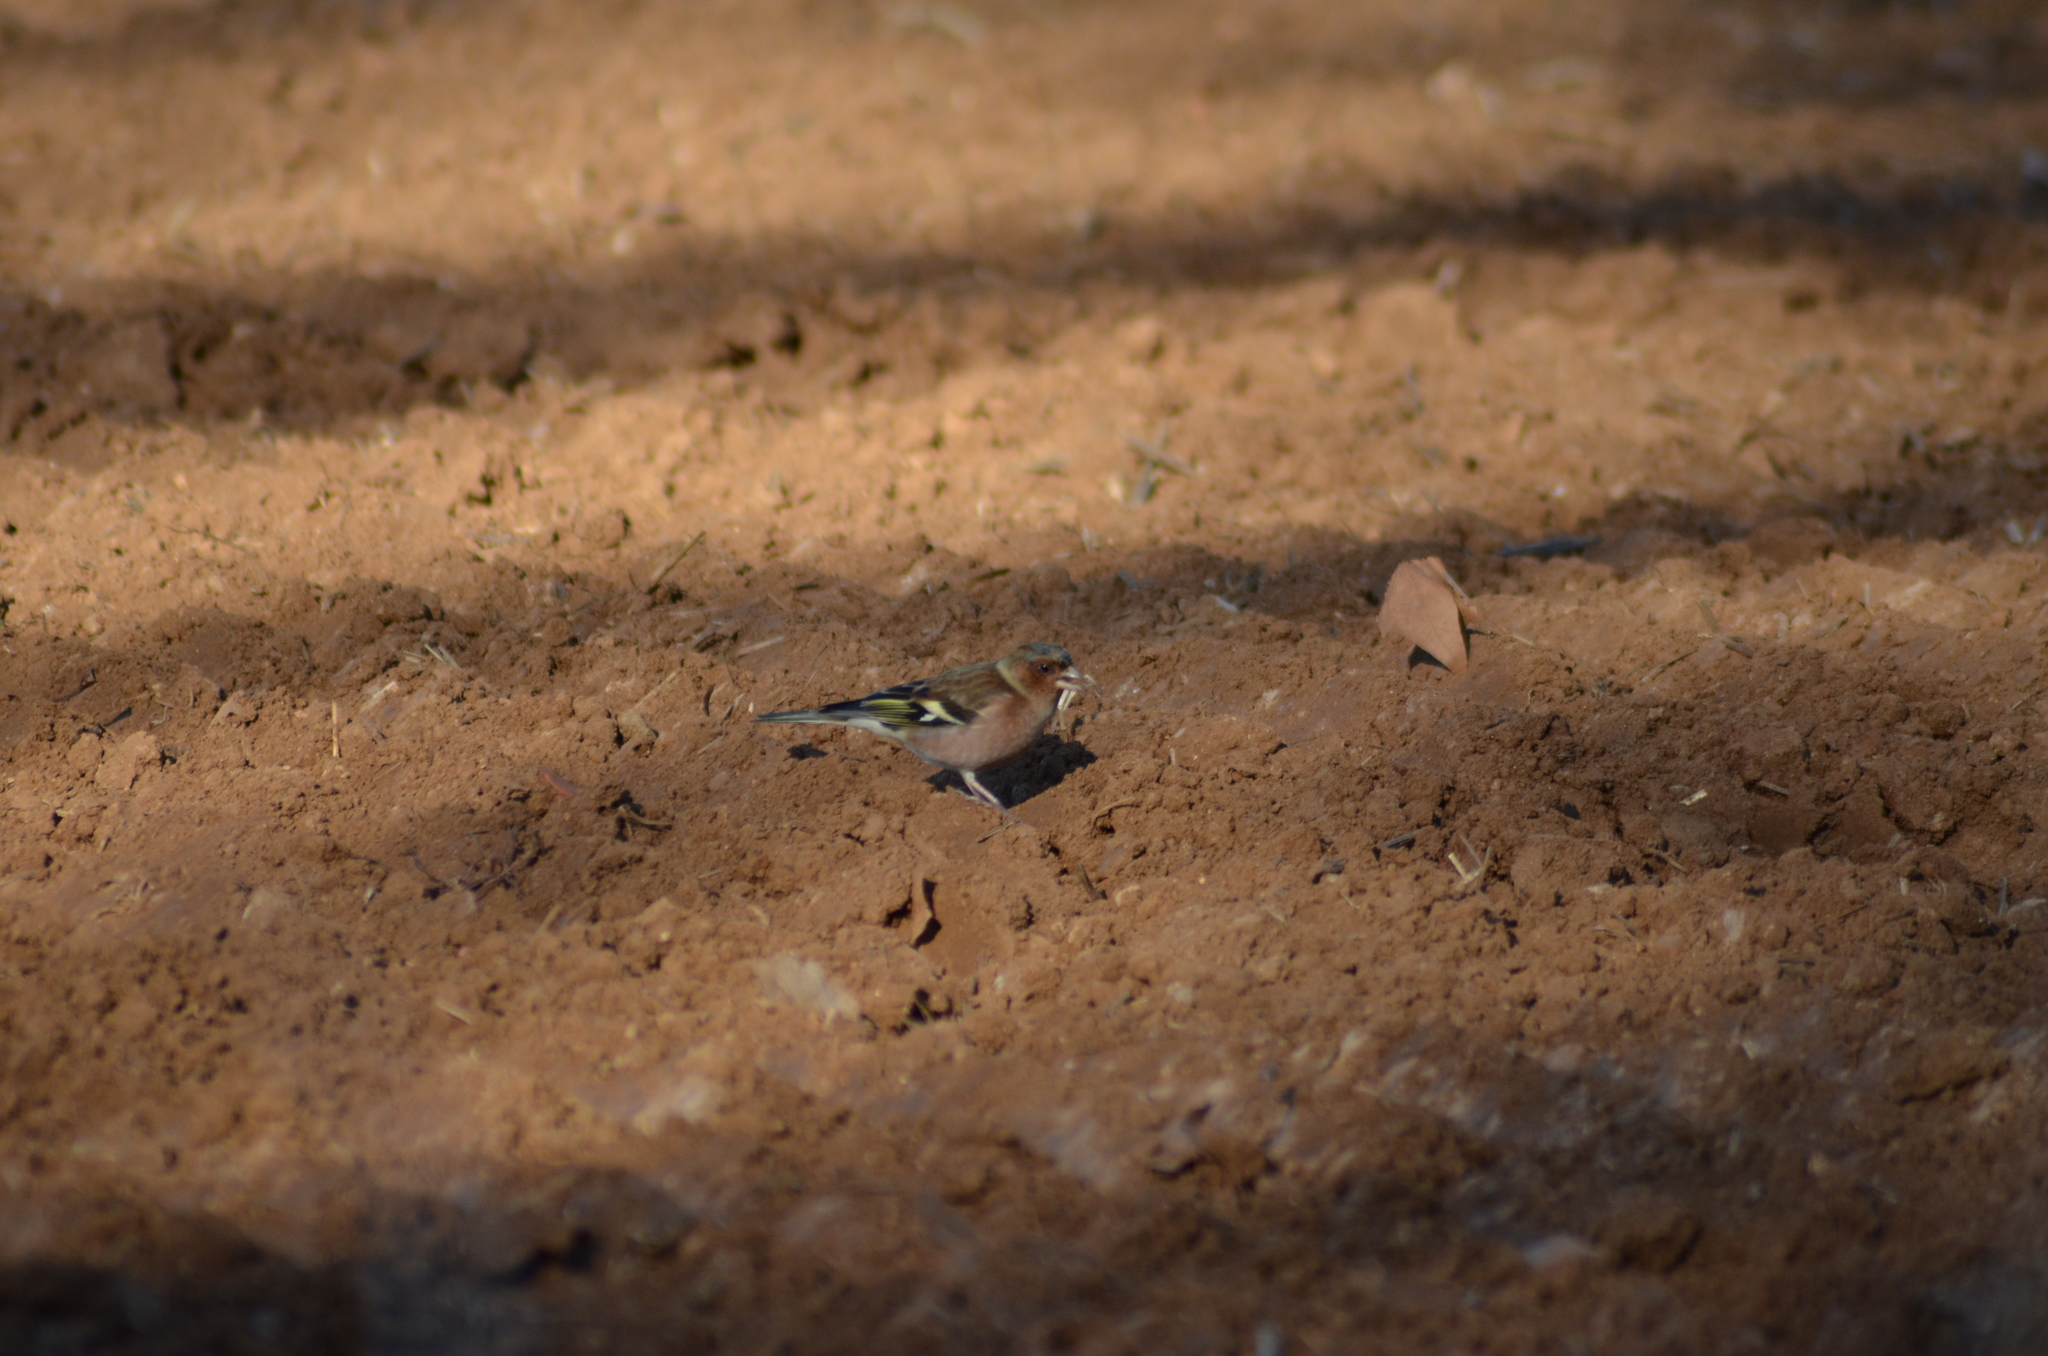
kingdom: Animalia
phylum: Chordata
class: Aves
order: Passeriformes
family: Fringillidae
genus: Fringilla
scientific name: Fringilla coelebs
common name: Common chaffinch
